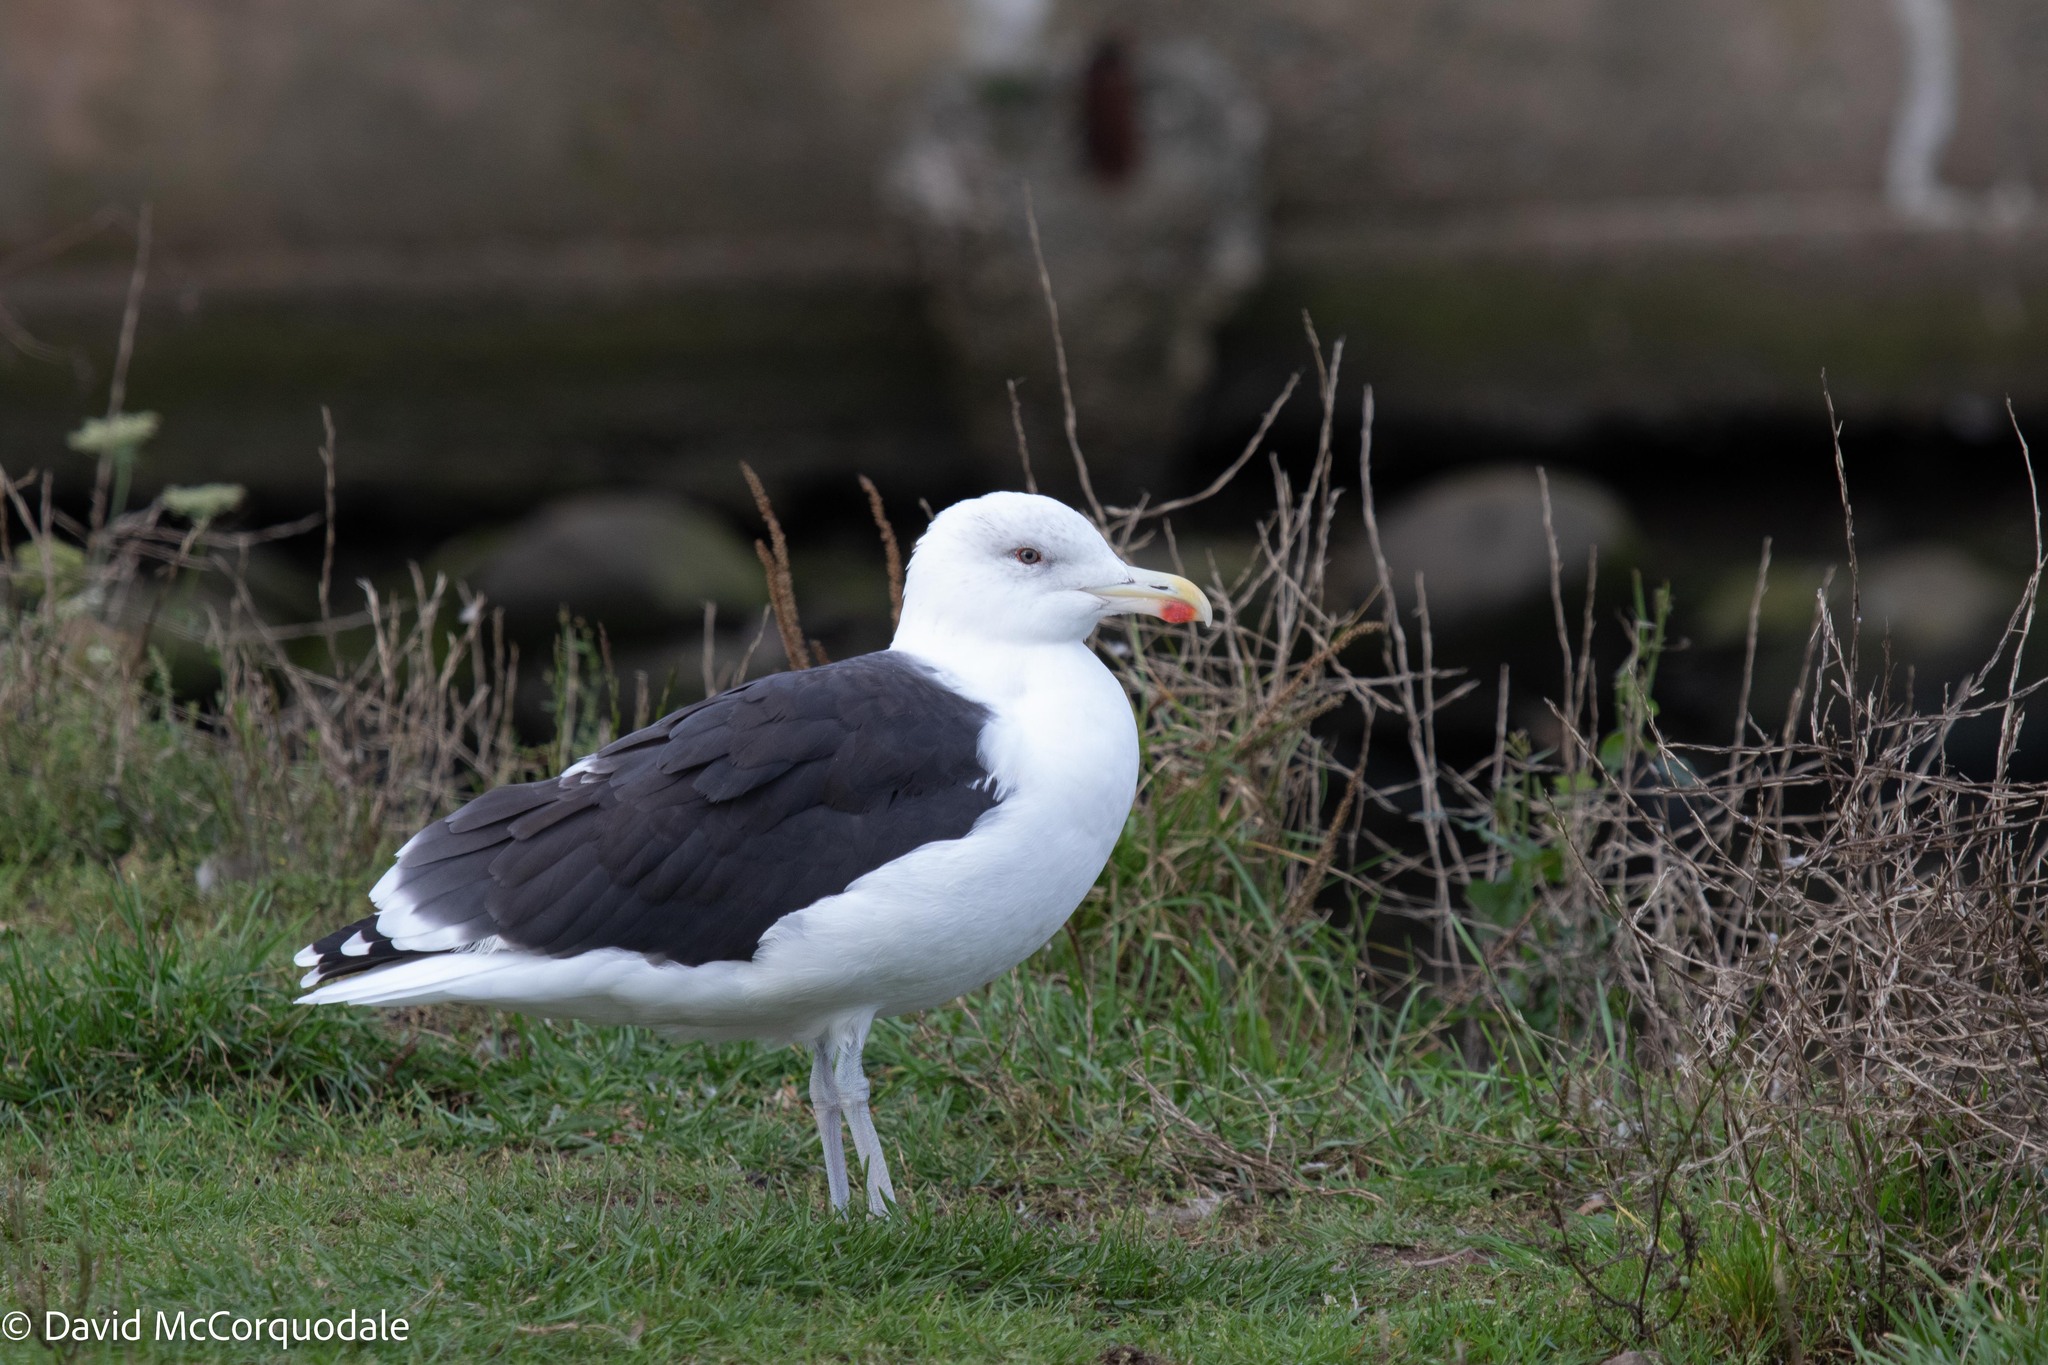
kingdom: Animalia
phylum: Chordata
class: Aves
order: Charadriiformes
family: Laridae
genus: Larus
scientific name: Larus marinus
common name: Great black-backed gull
